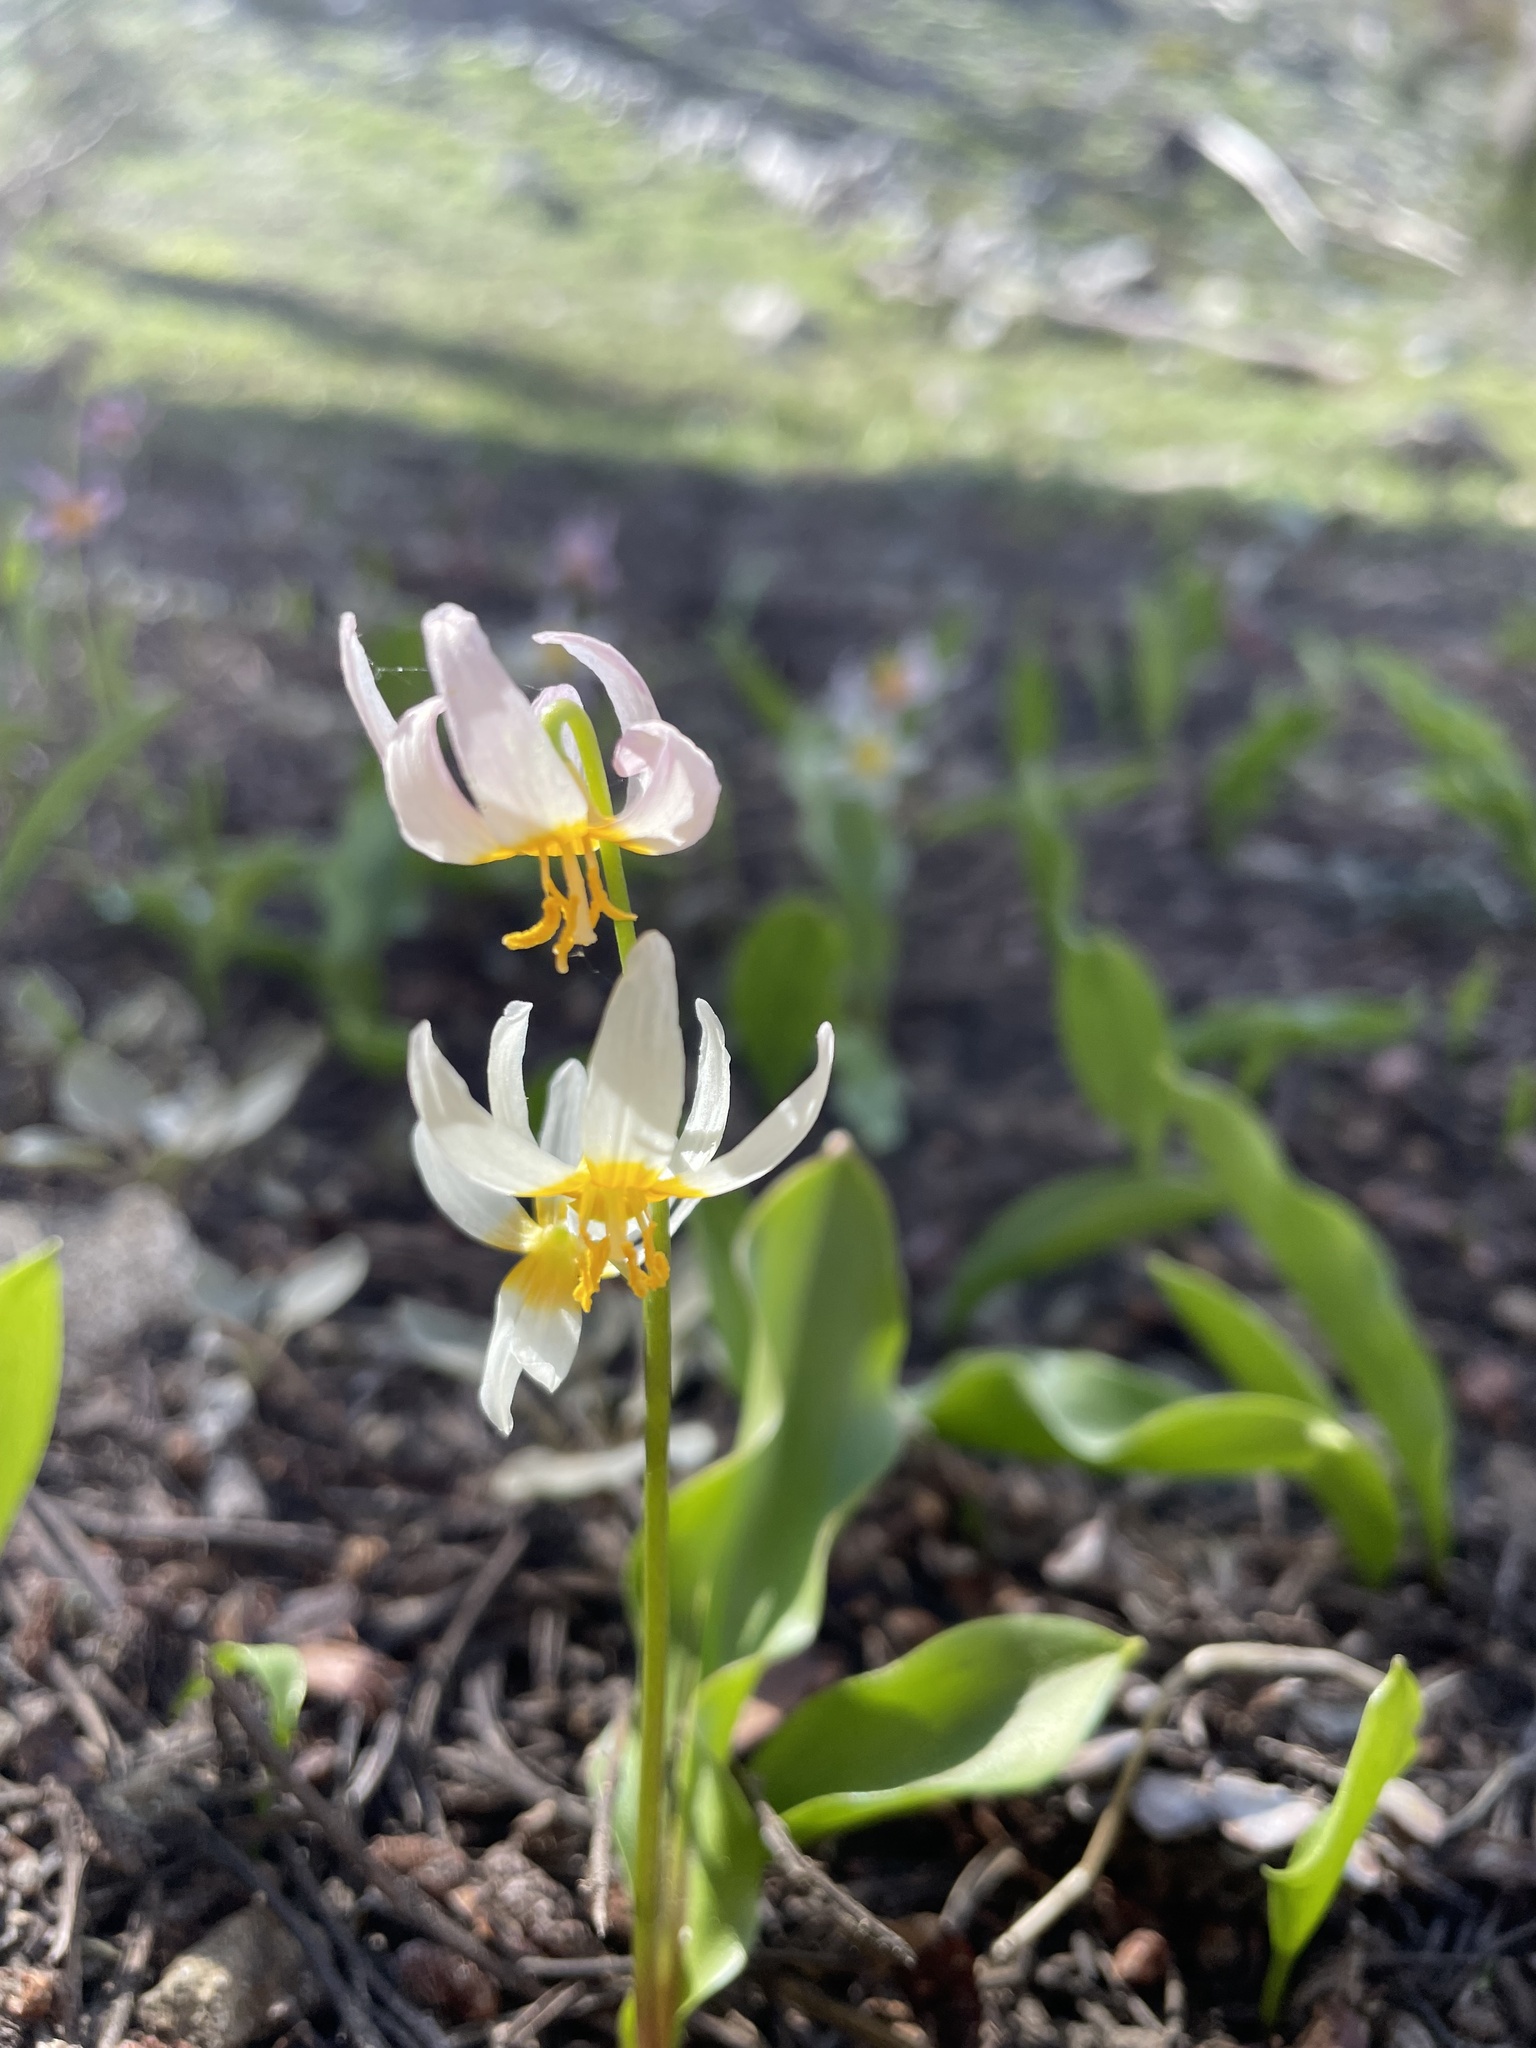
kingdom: Plantae
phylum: Tracheophyta
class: Liliopsida
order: Liliales
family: Liliaceae
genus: Erythronium
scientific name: Erythronium purpurascens
